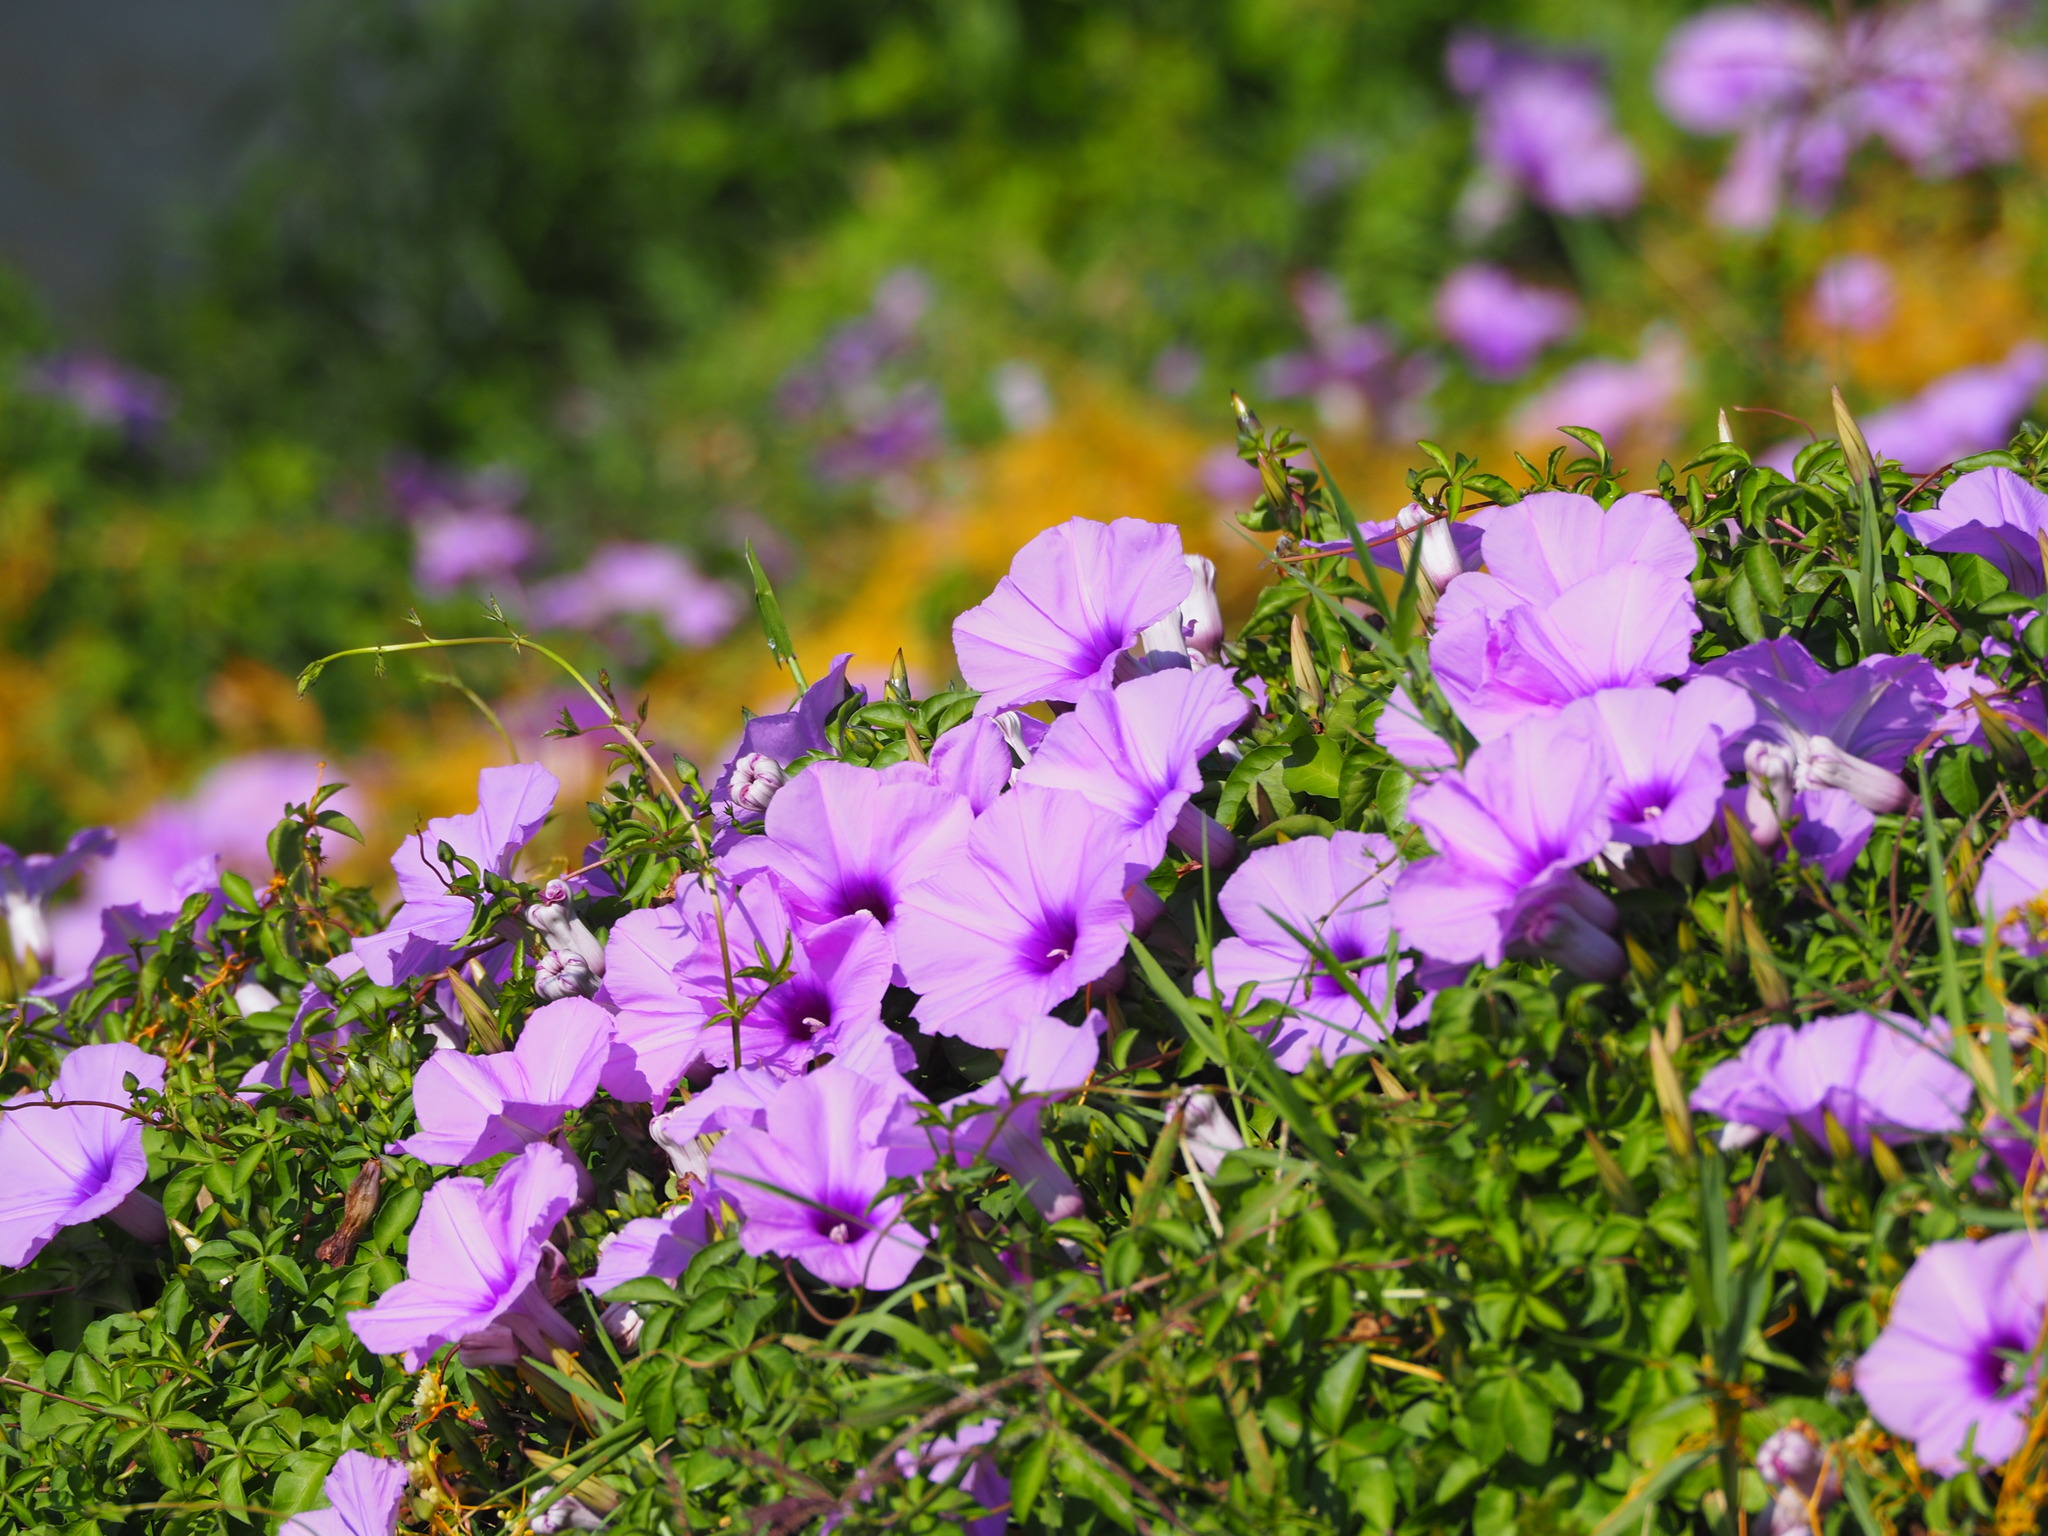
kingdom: Plantae
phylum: Tracheophyta
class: Magnoliopsida
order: Solanales
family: Convolvulaceae
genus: Ipomoea
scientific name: Ipomoea cairica
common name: Mile a minute vine
